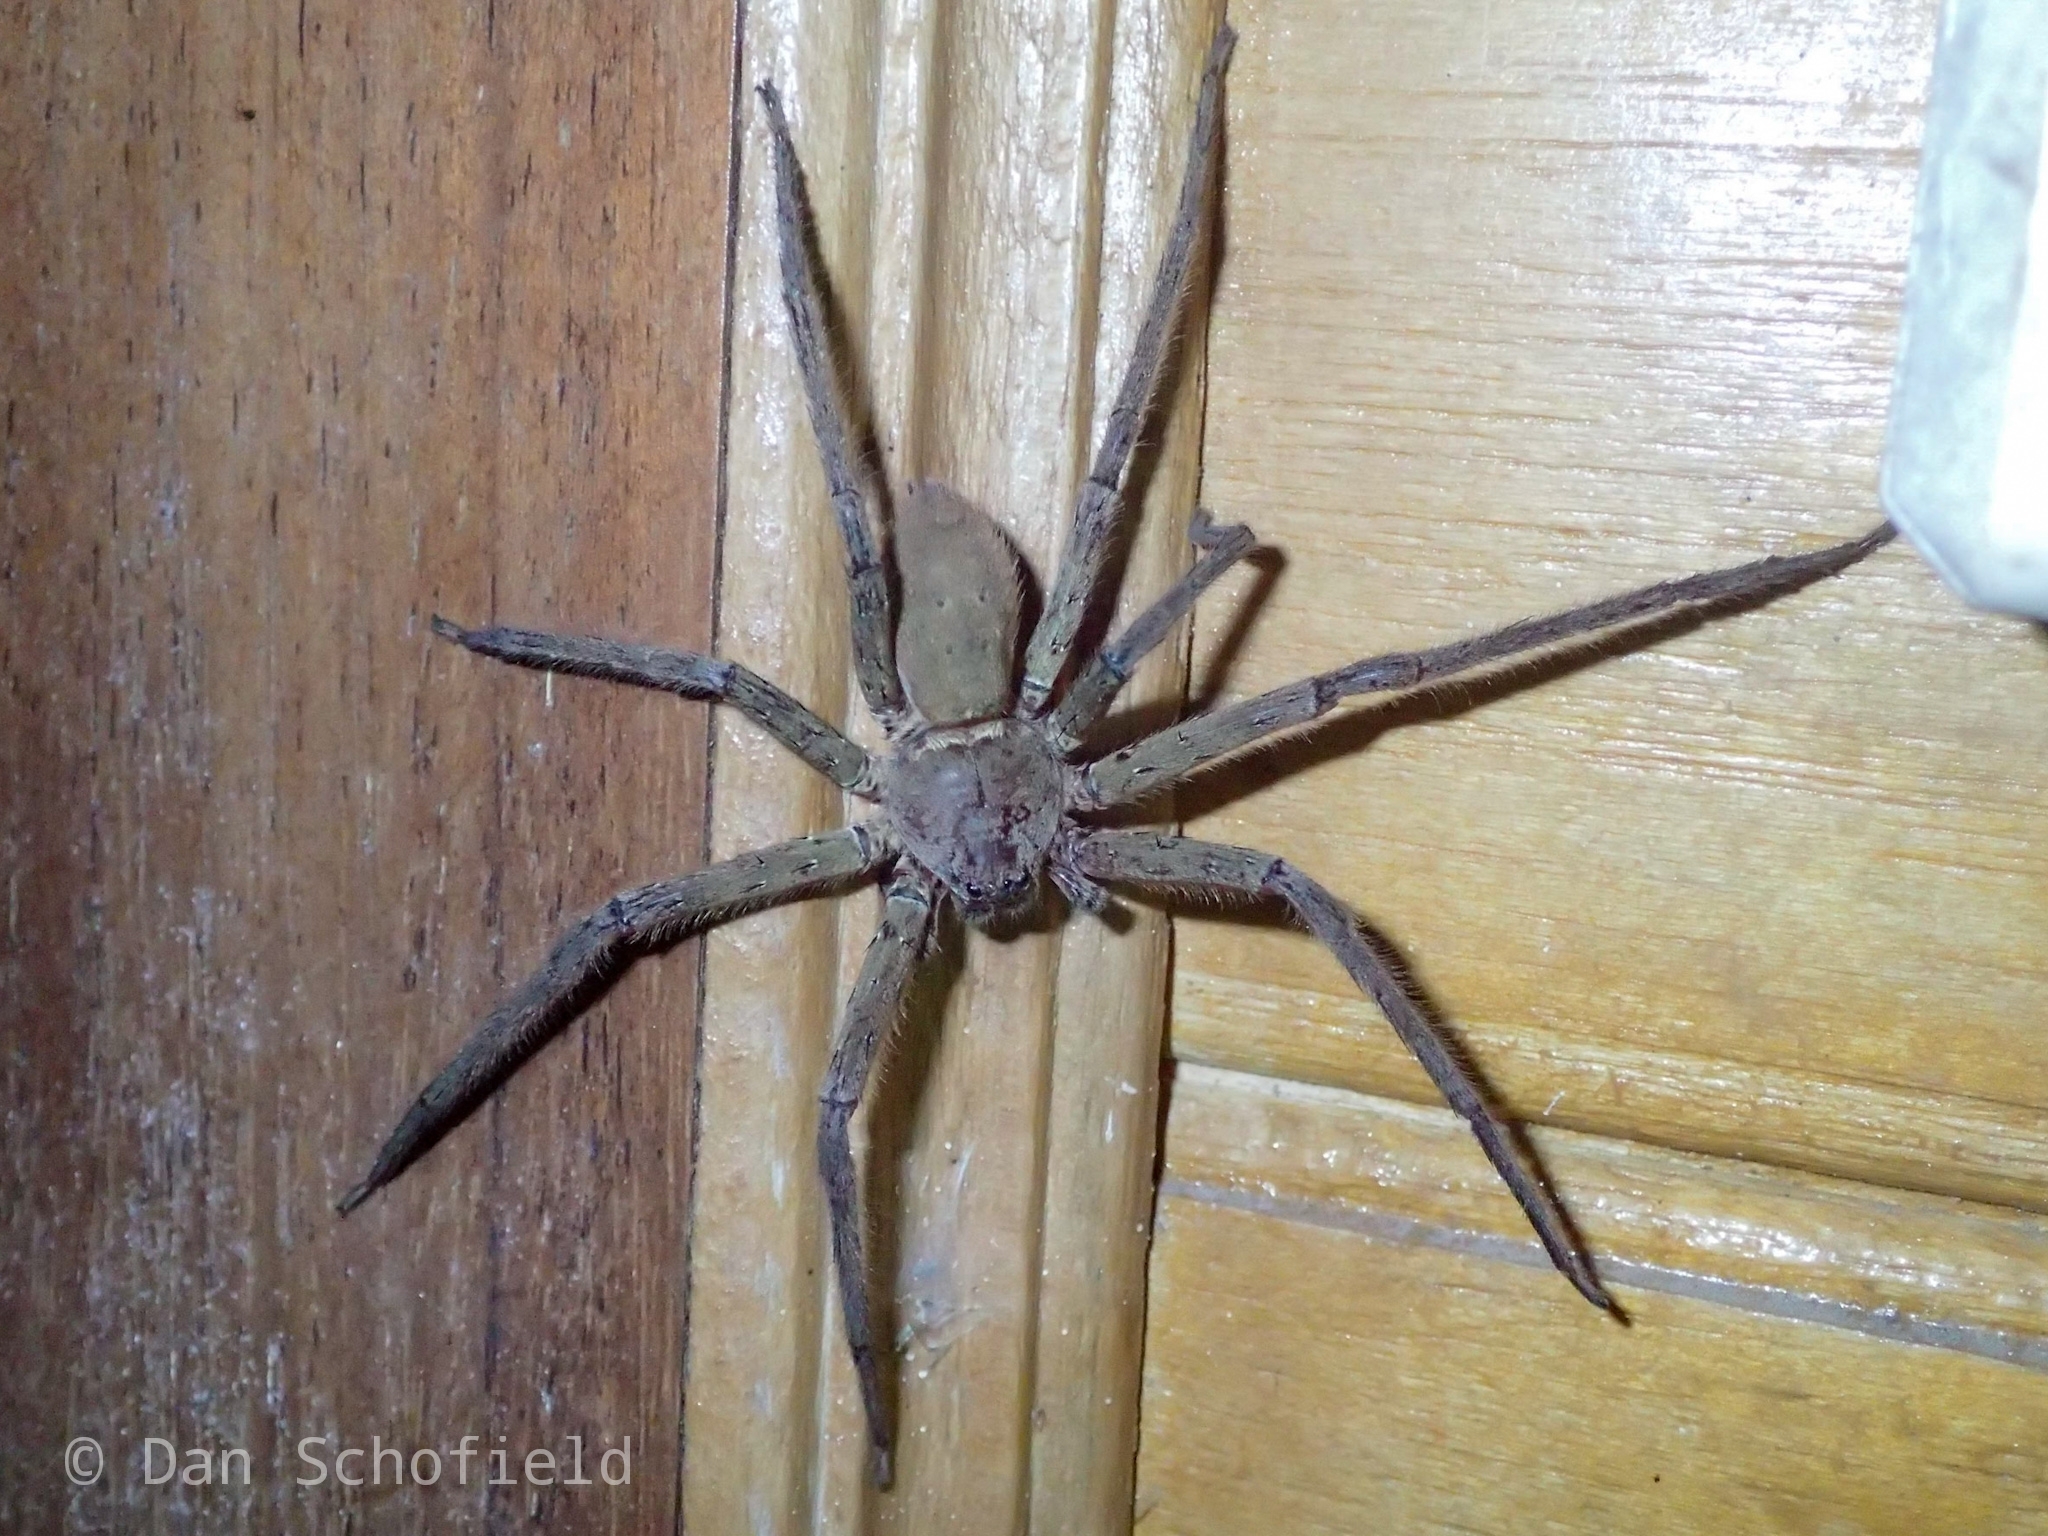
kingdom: Animalia
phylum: Arthropoda
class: Arachnida
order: Araneae
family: Sparassidae
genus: Heteropoda
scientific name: Heteropoda venatoria
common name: Huntsman spider
